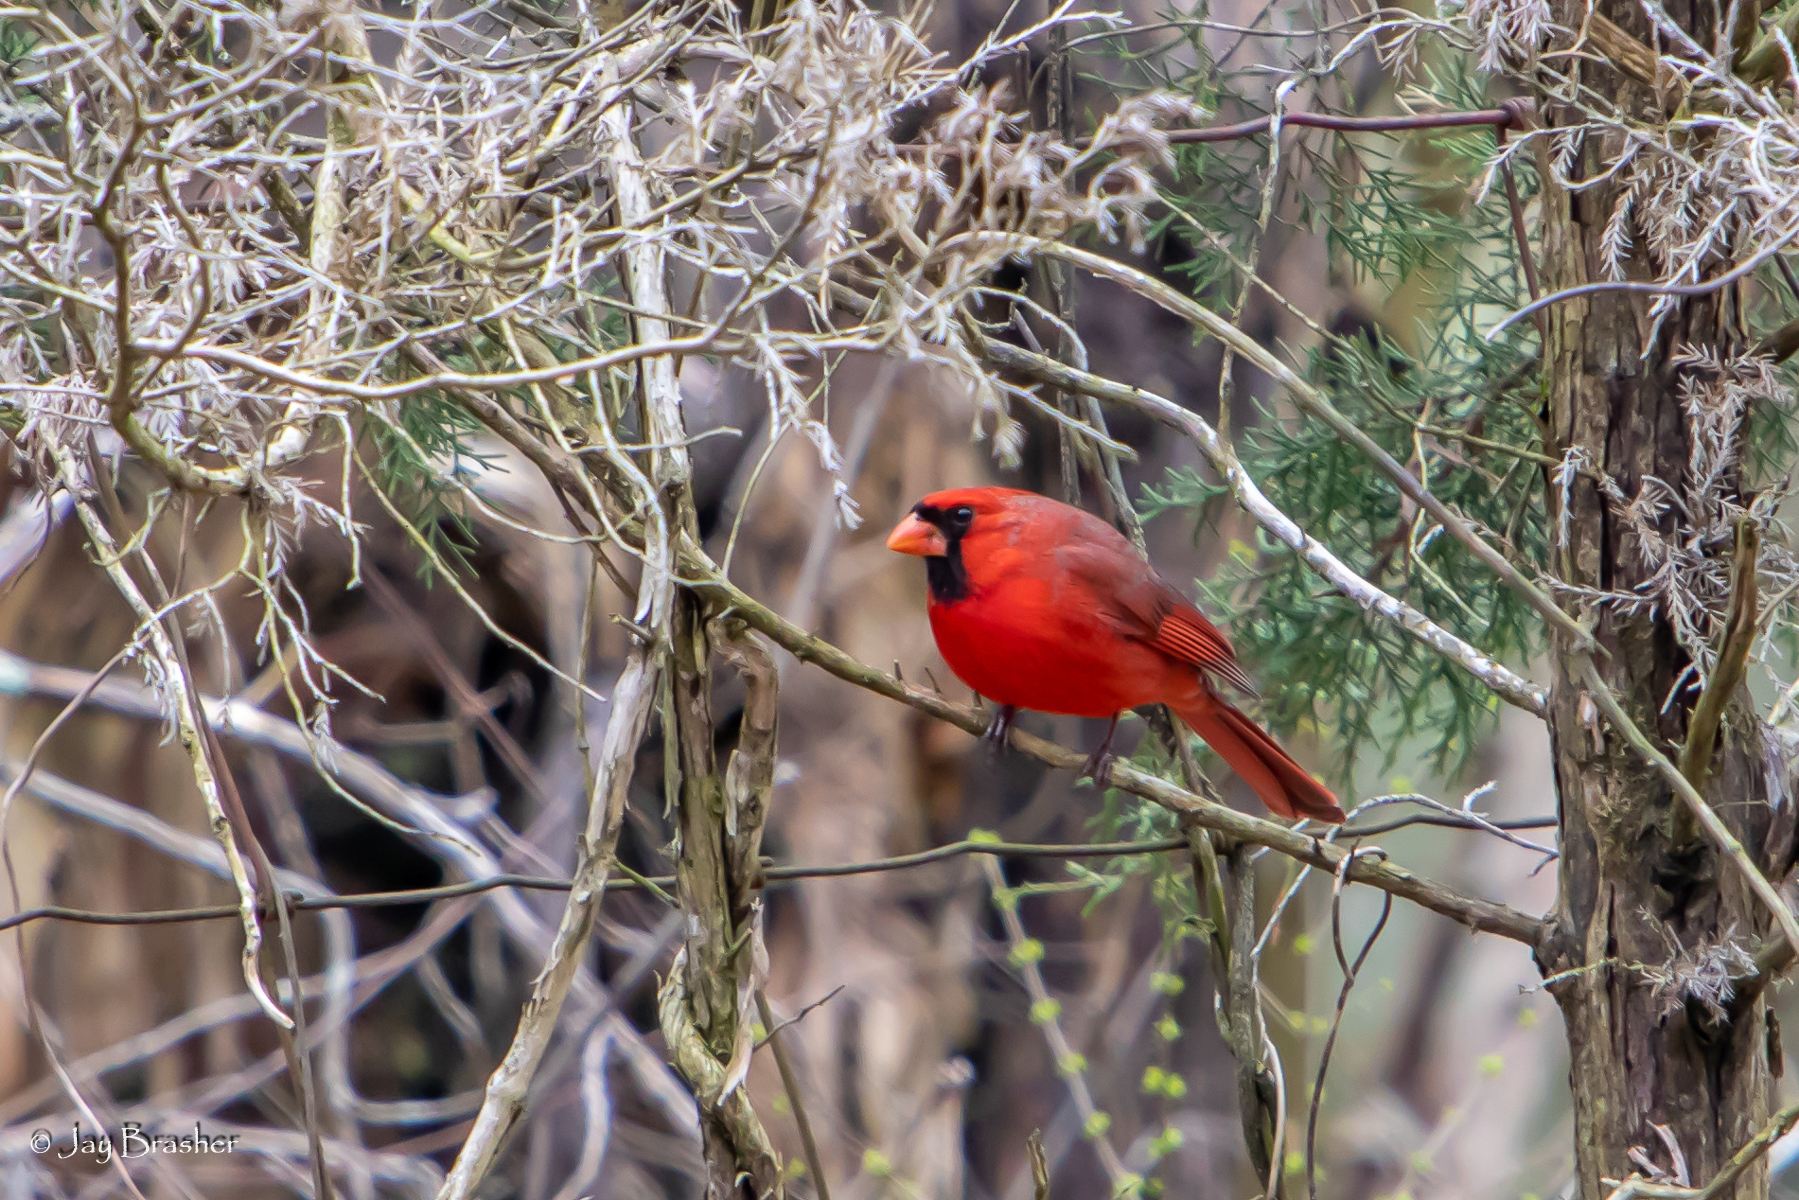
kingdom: Animalia
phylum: Chordata
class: Aves
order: Passeriformes
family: Cardinalidae
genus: Cardinalis
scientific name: Cardinalis cardinalis
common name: Northern cardinal
